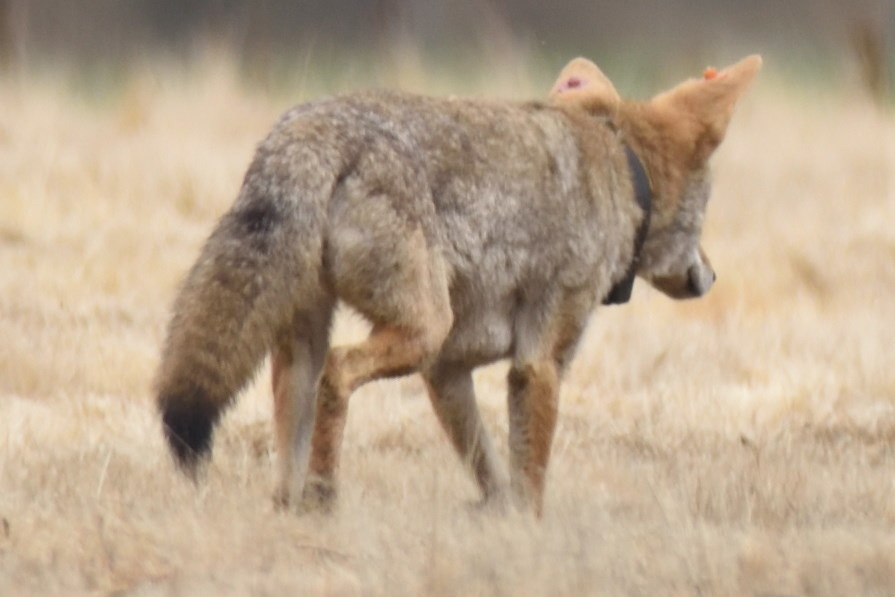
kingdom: Animalia
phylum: Chordata
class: Mammalia
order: Carnivora
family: Canidae
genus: Canis
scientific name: Canis latrans
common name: Coyote
